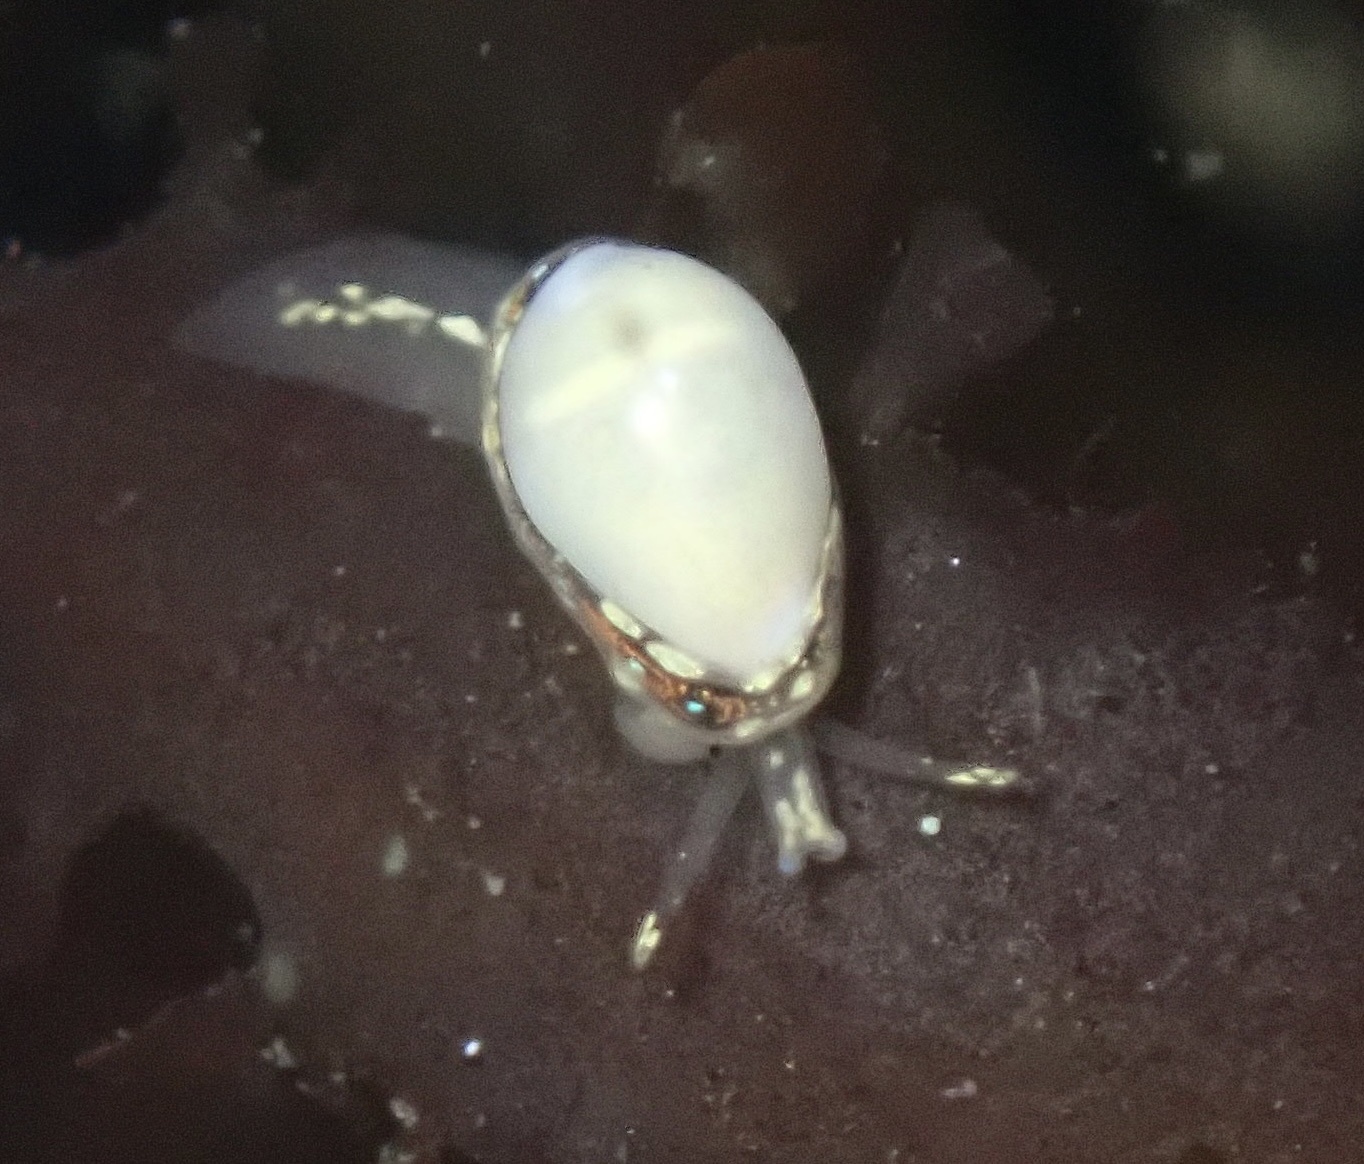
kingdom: Animalia
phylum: Mollusca
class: Gastropoda
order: Neogastropoda
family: Granulinidae
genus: Granulina
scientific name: Granulina margaritula
